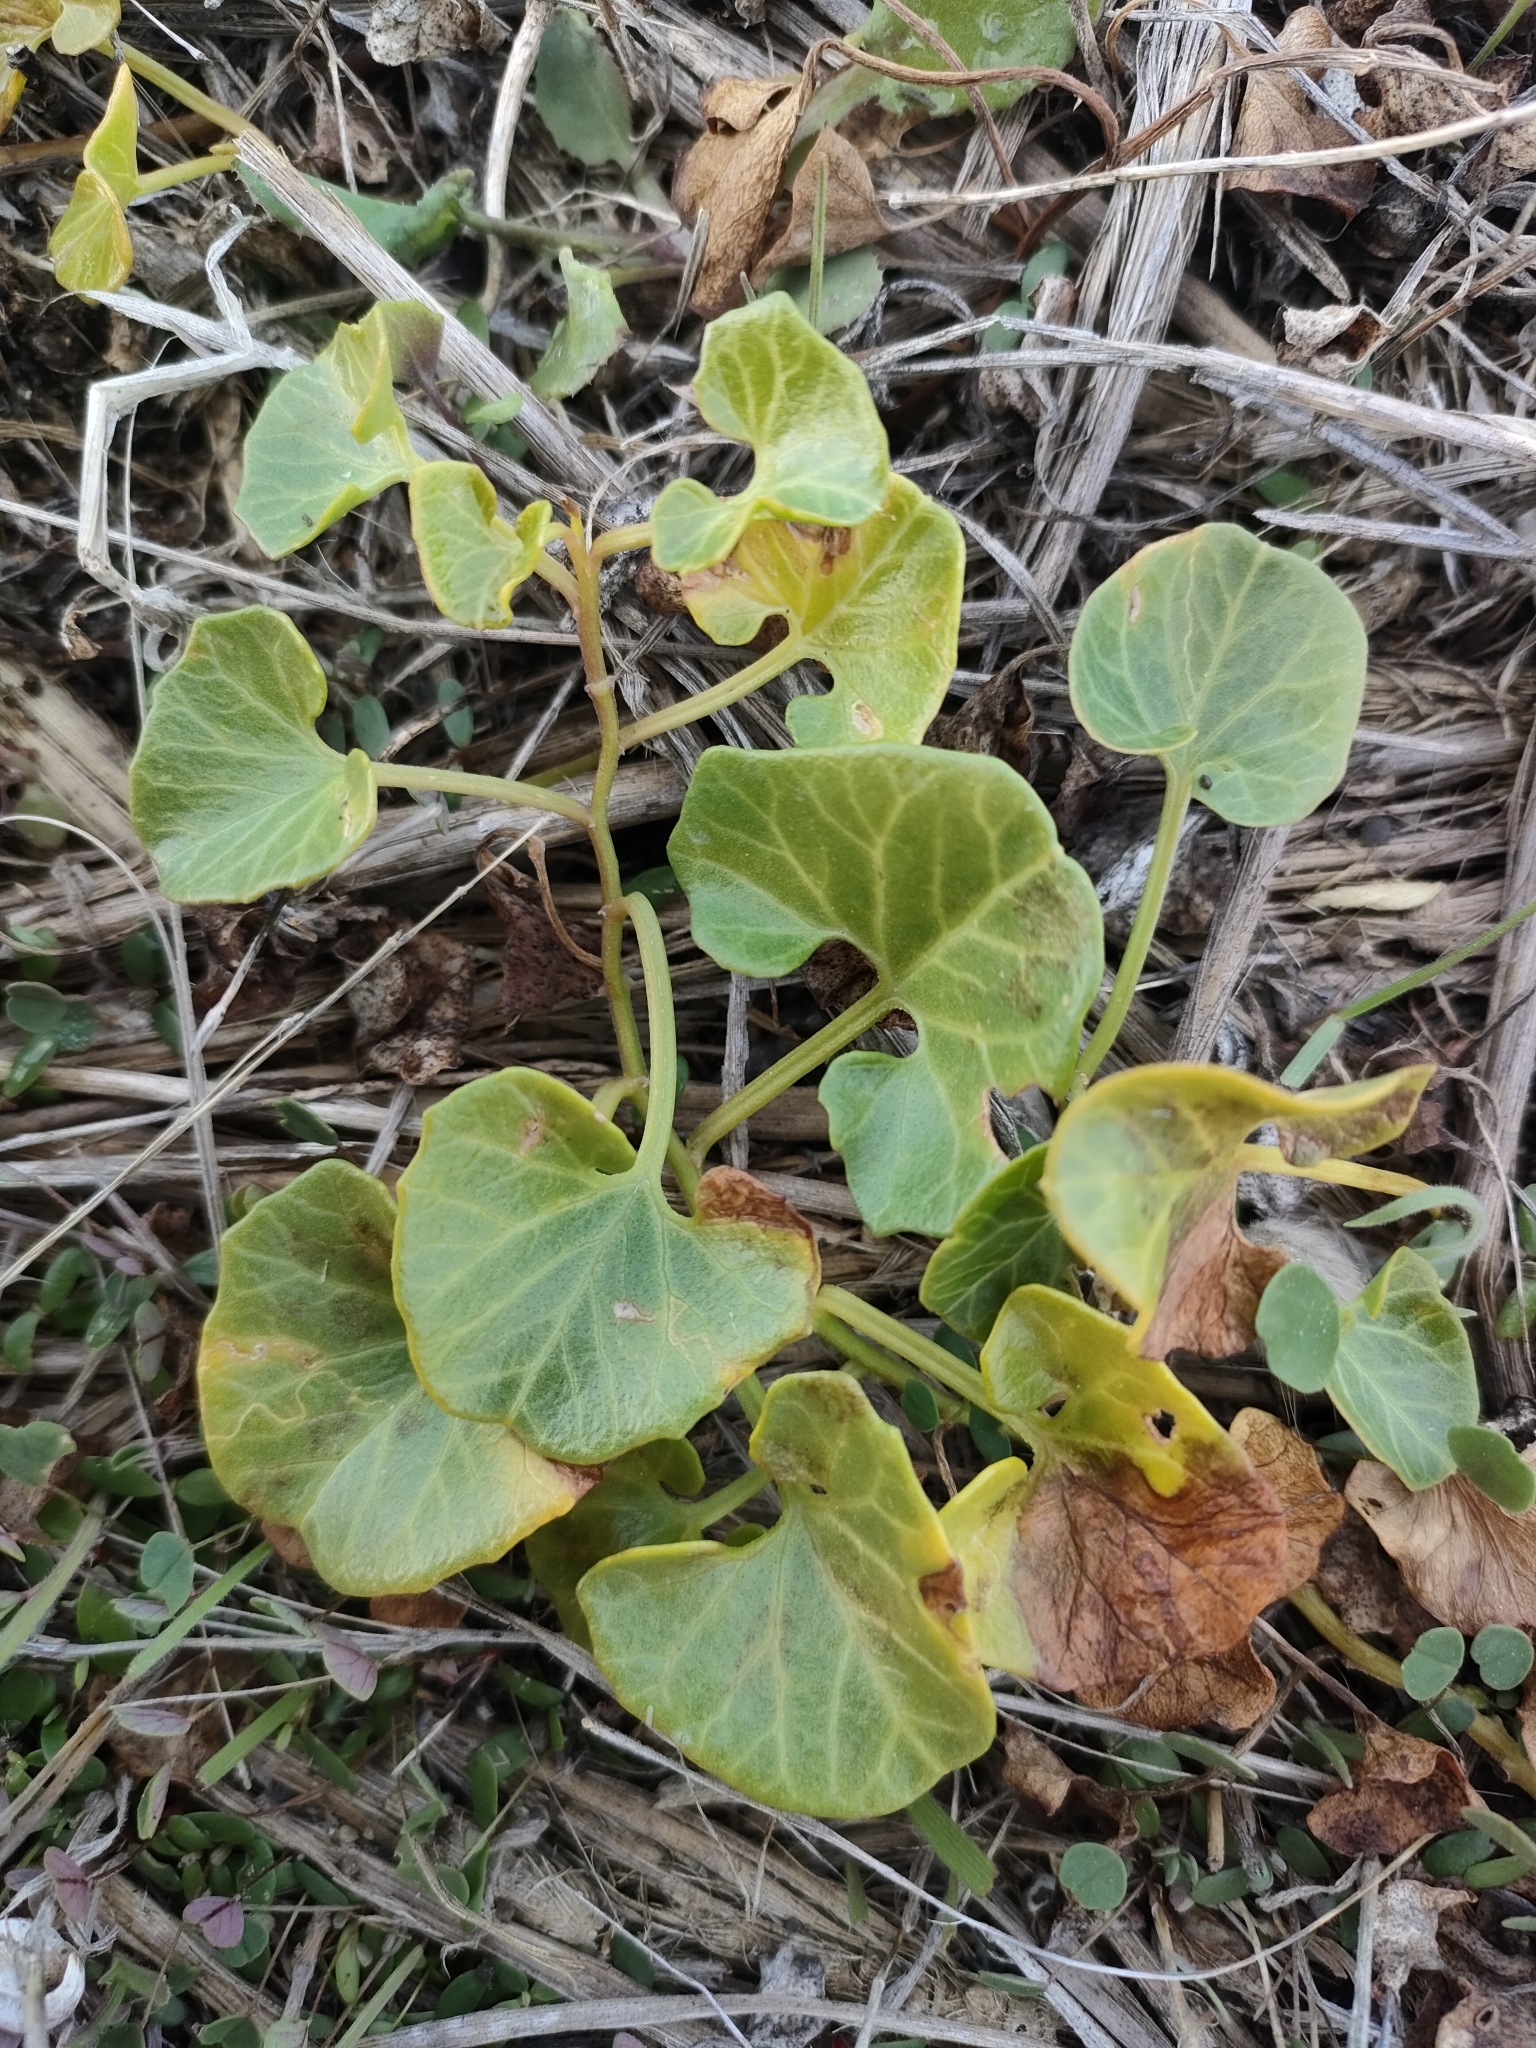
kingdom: Plantae
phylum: Tracheophyta
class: Magnoliopsida
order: Solanales
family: Convolvulaceae
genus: Calystegia
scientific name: Calystegia soldanella
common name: Sea bindweed
